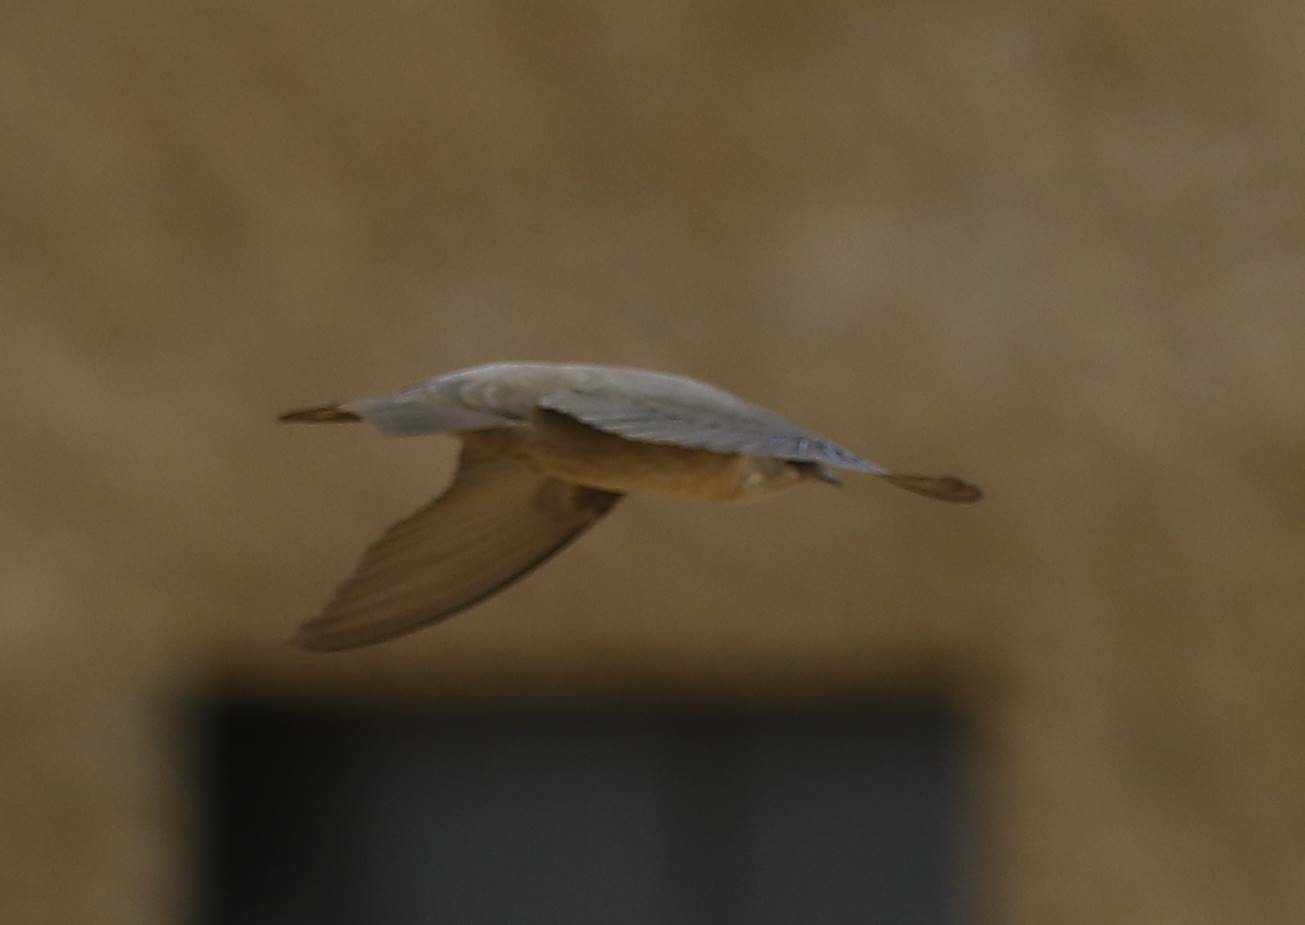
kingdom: Animalia
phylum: Chordata
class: Aves
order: Passeriformes
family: Hirundinidae
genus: Ptyonoprogne
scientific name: Ptyonoprogne fuligula
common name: Rock martin
